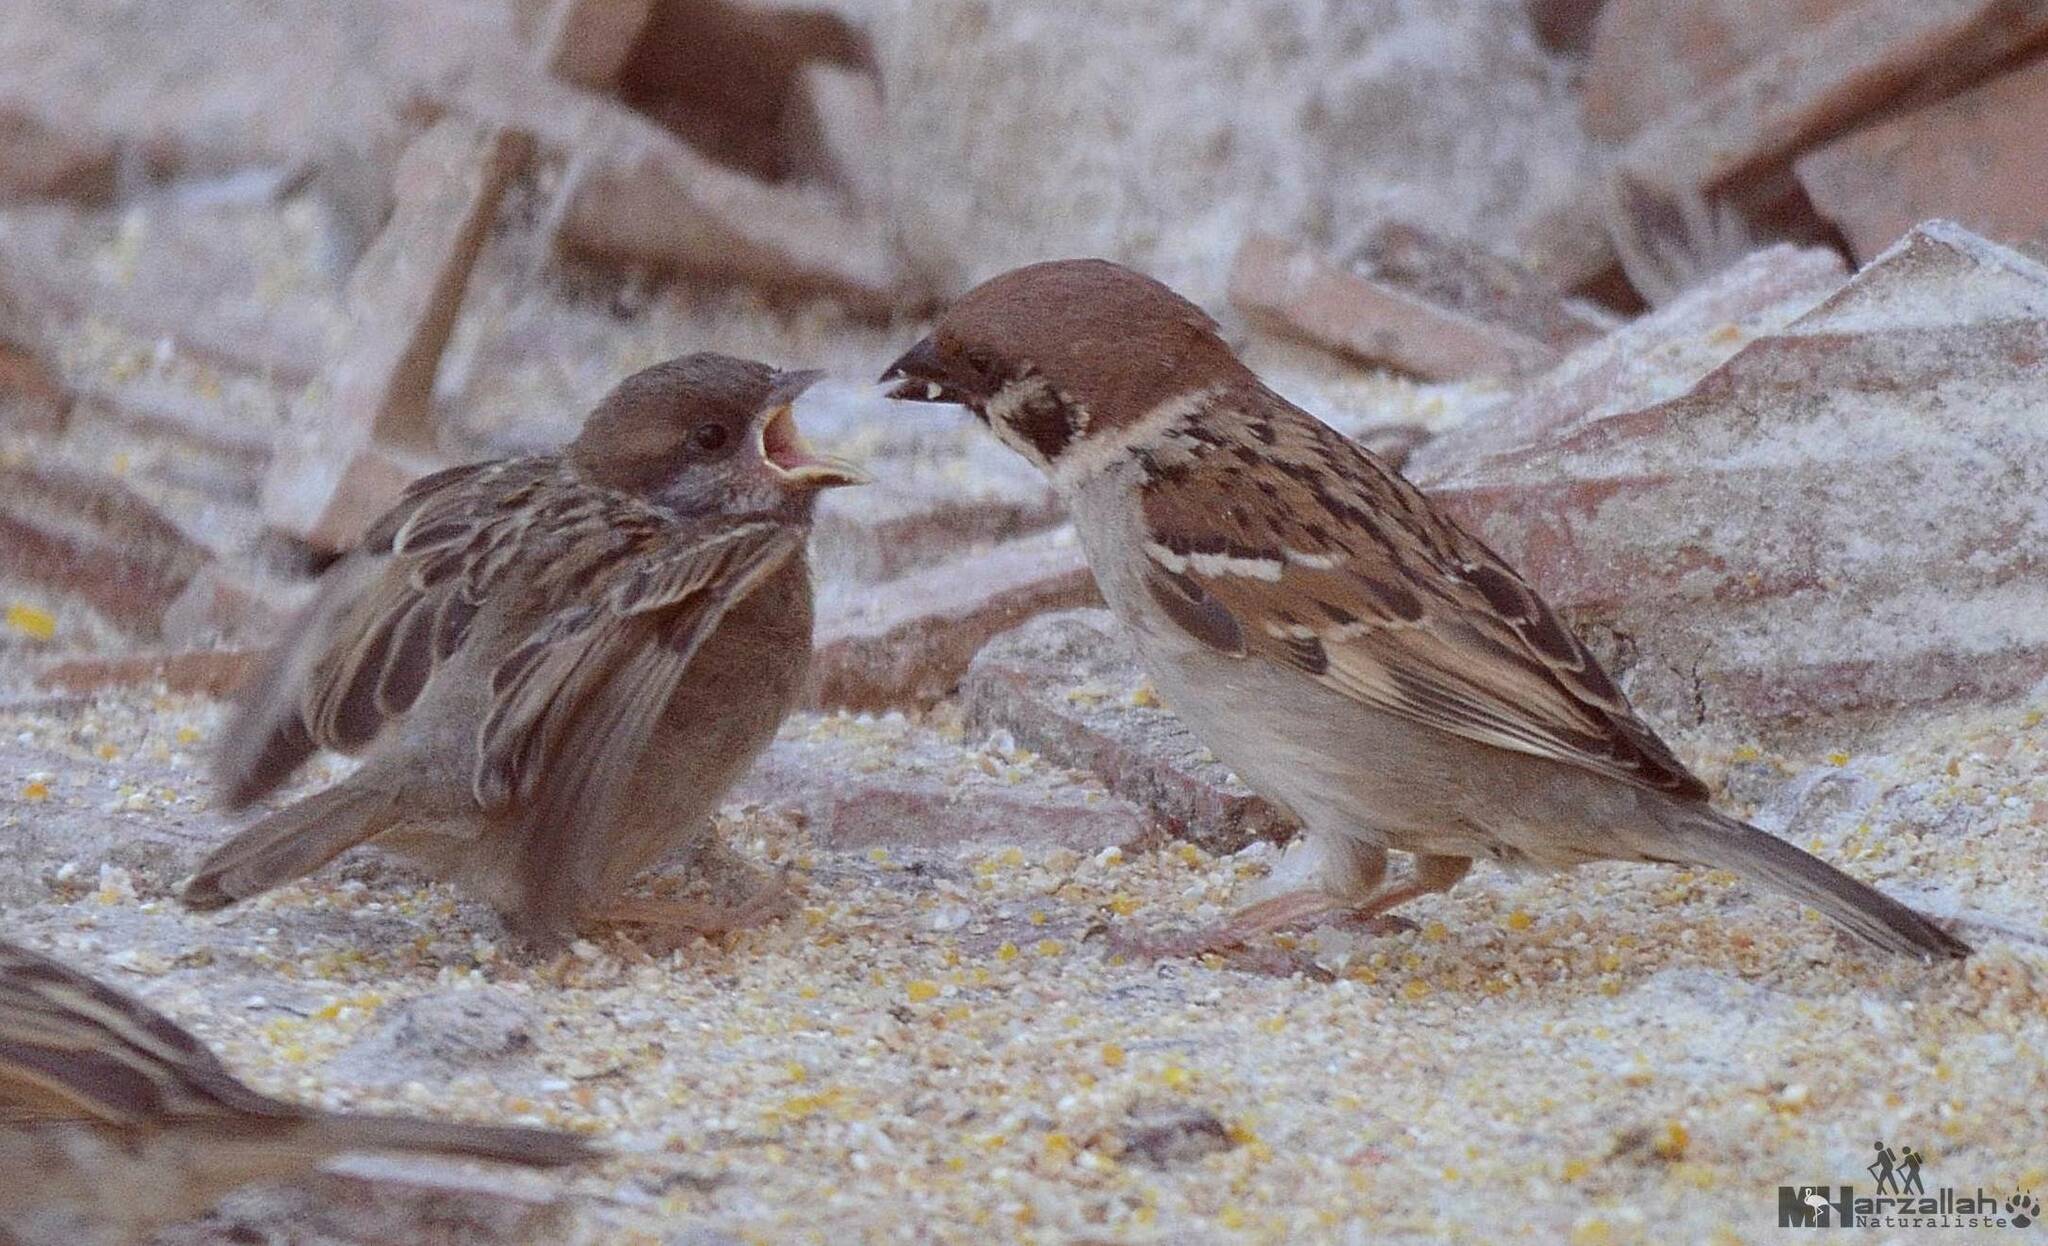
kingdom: Animalia
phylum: Chordata
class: Aves
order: Passeriformes
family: Passeridae
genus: Passer
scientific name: Passer montanus
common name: Eurasian tree sparrow
